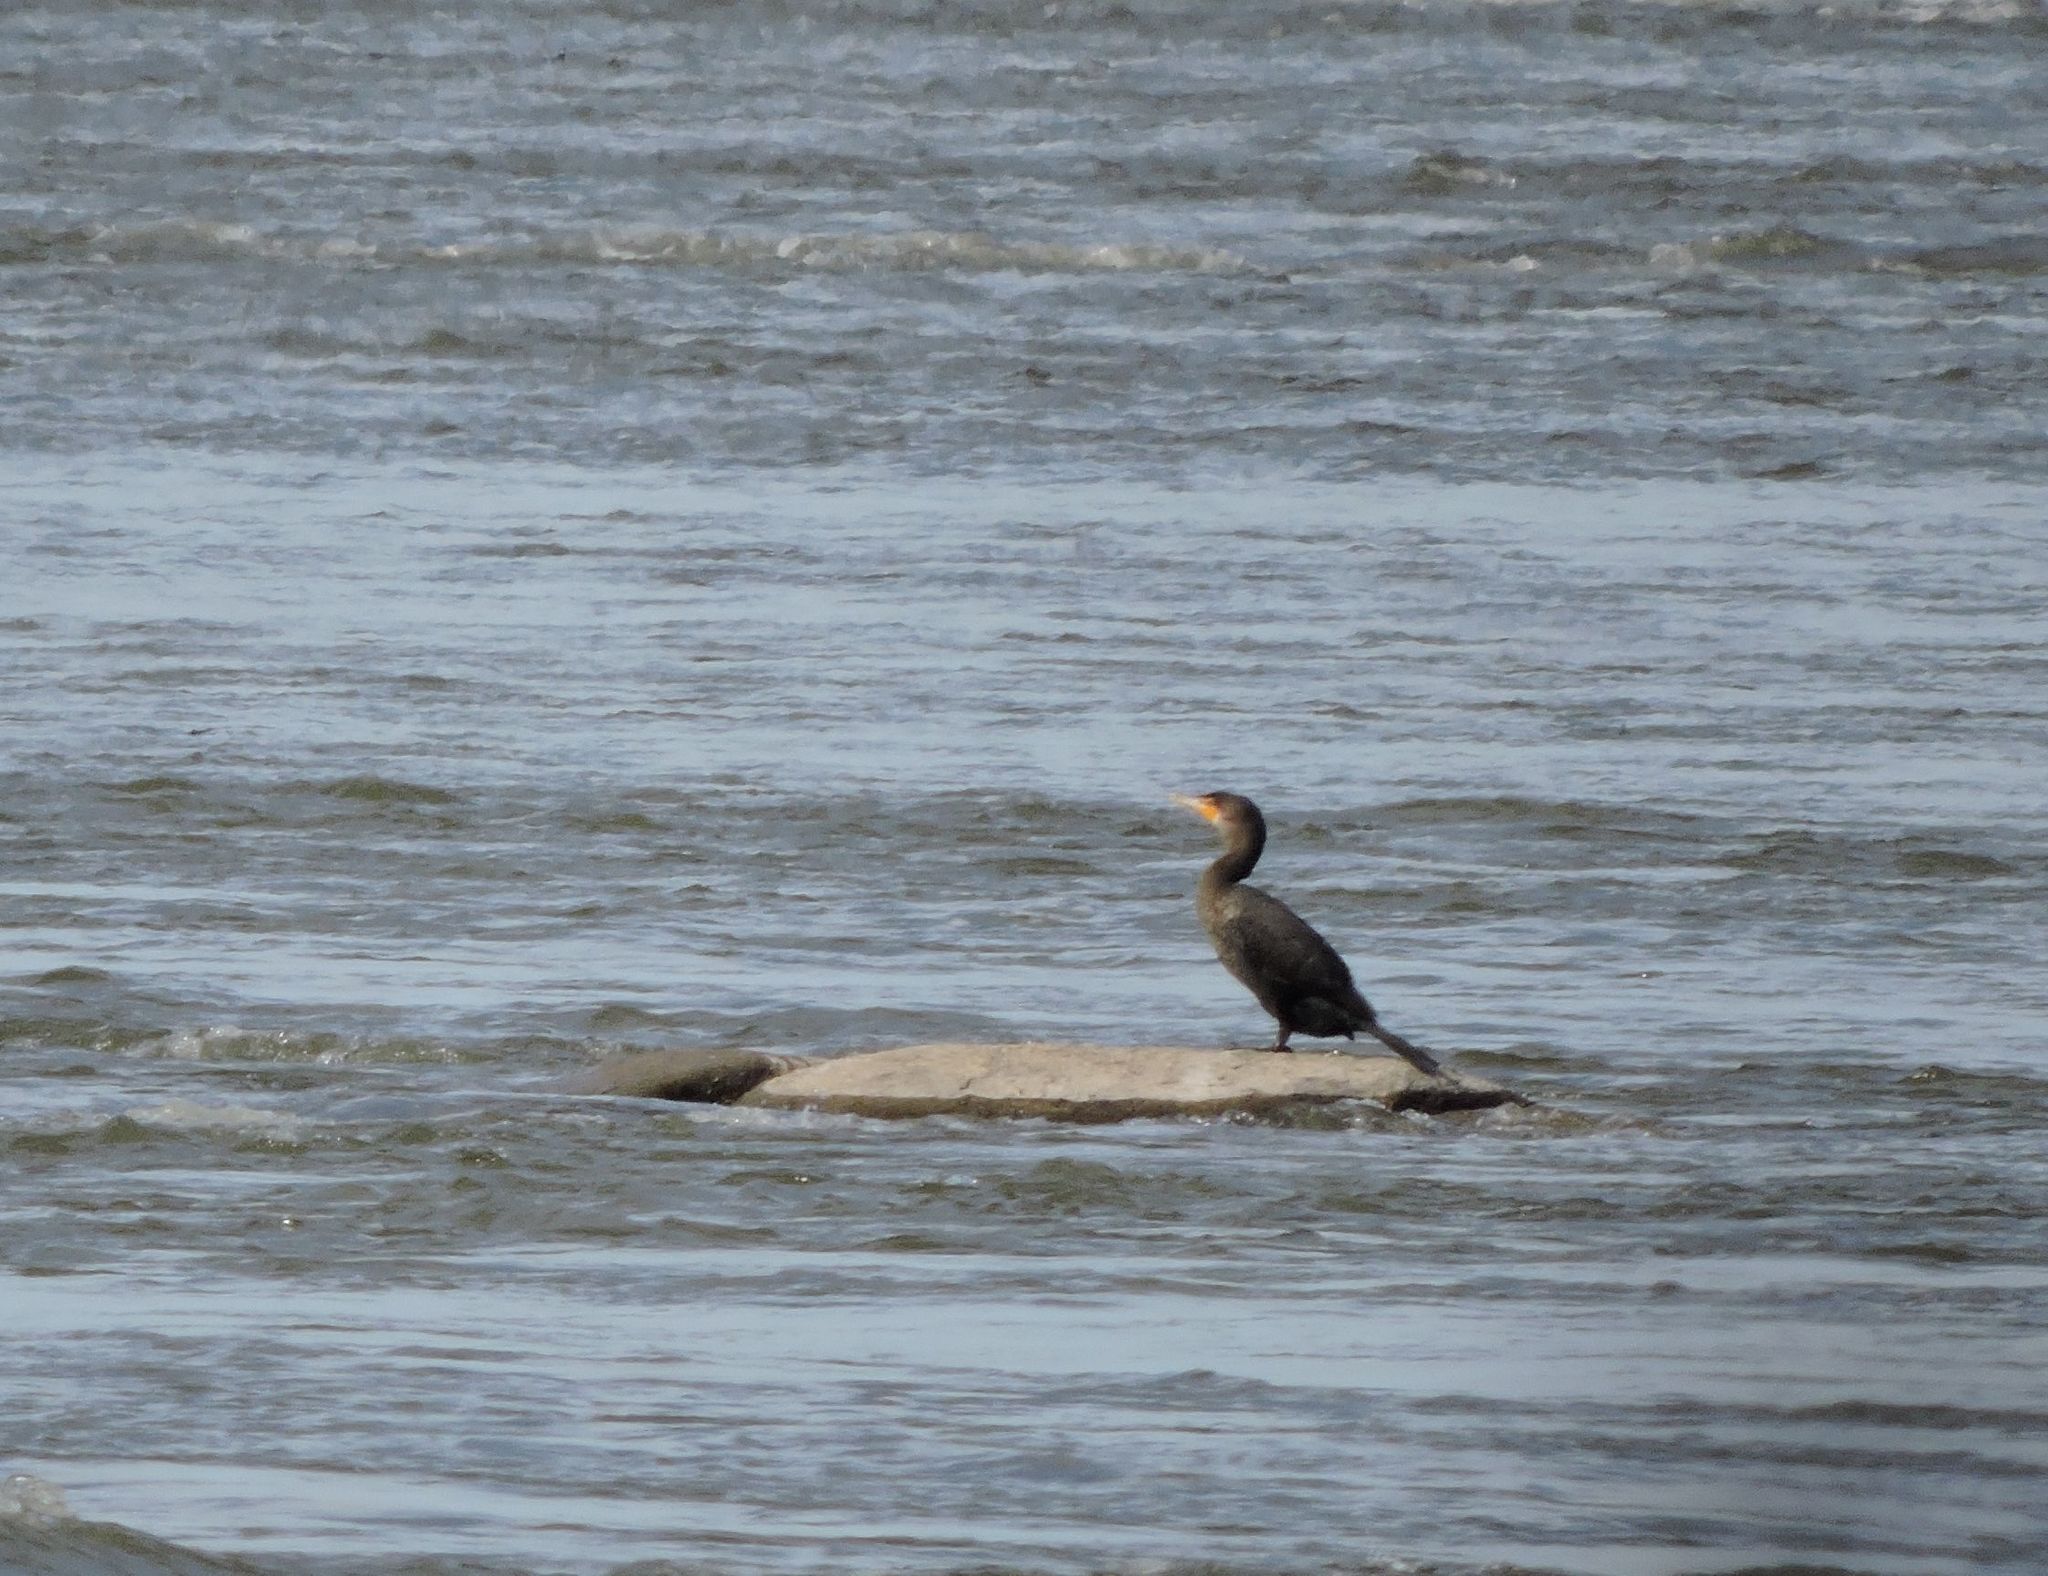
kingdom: Animalia
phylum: Chordata
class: Aves
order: Suliformes
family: Phalacrocoracidae
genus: Phalacrocorax
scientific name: Phalacrocorax auritus
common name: Double-crested cormorant
